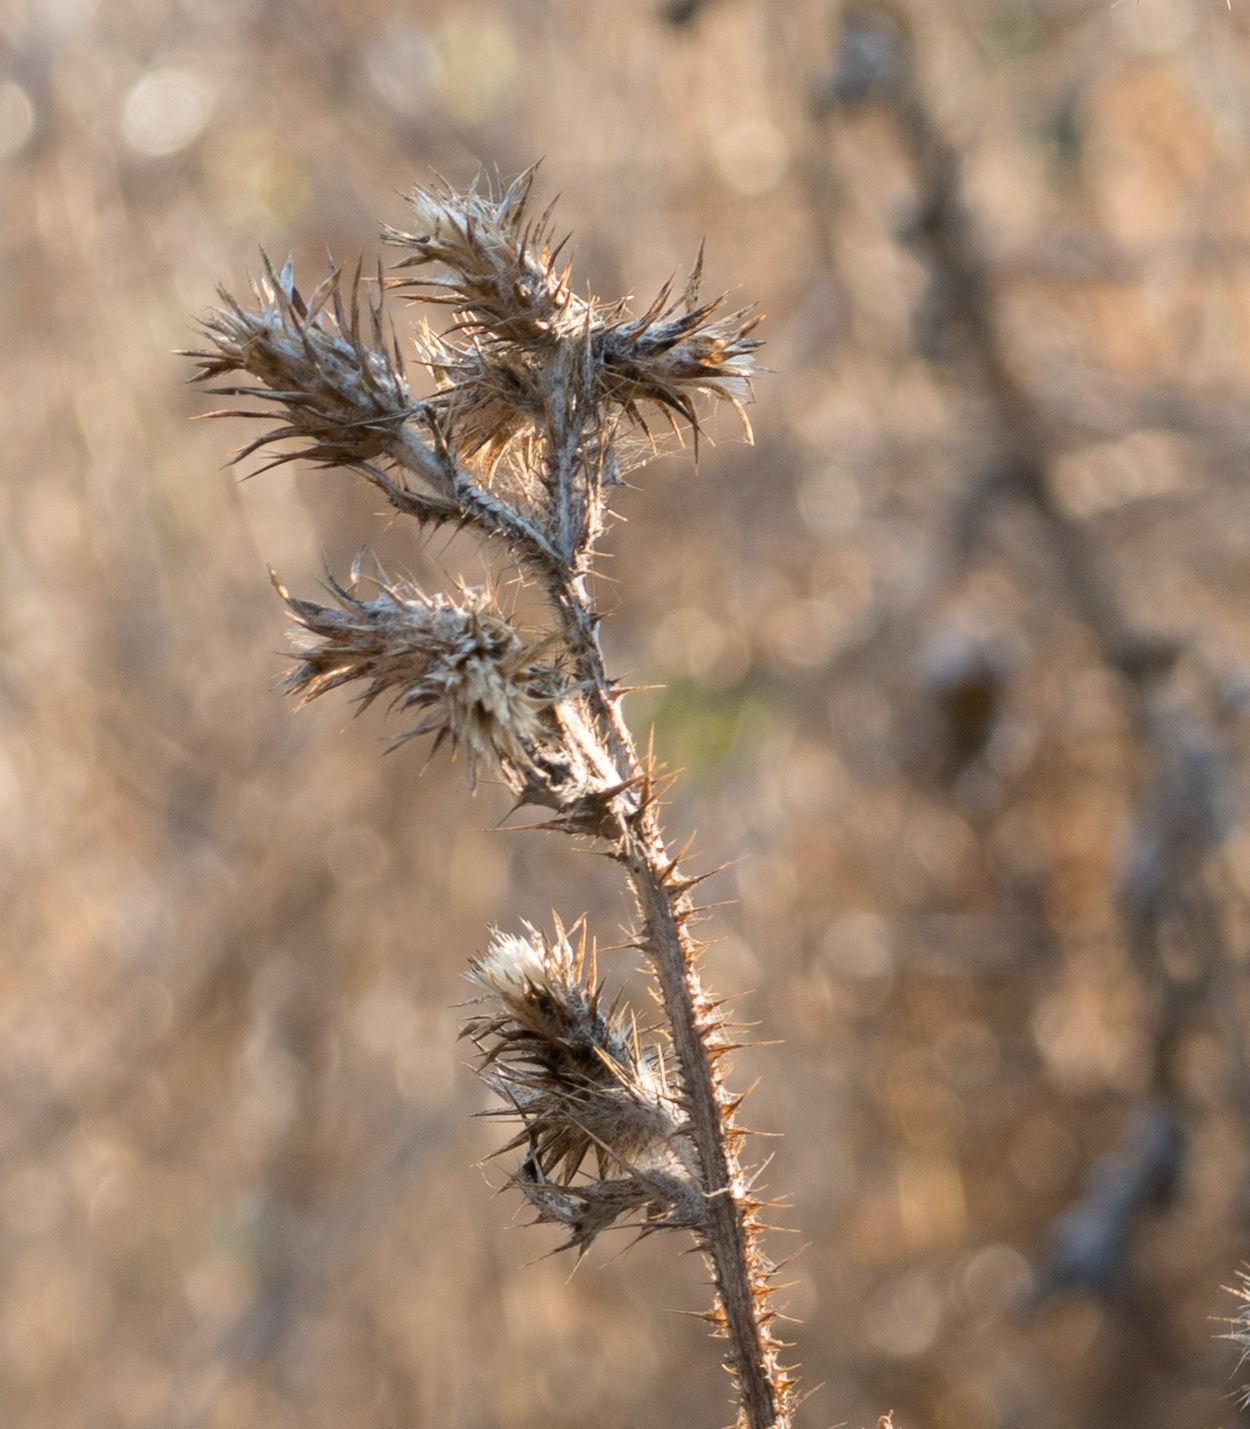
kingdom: Plantae
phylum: Tracheophyta
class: Magnoliopsida
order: Asterales
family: Asteraceae
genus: Carduus
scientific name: Carduus pycnocephalus
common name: Plymouth thistle
